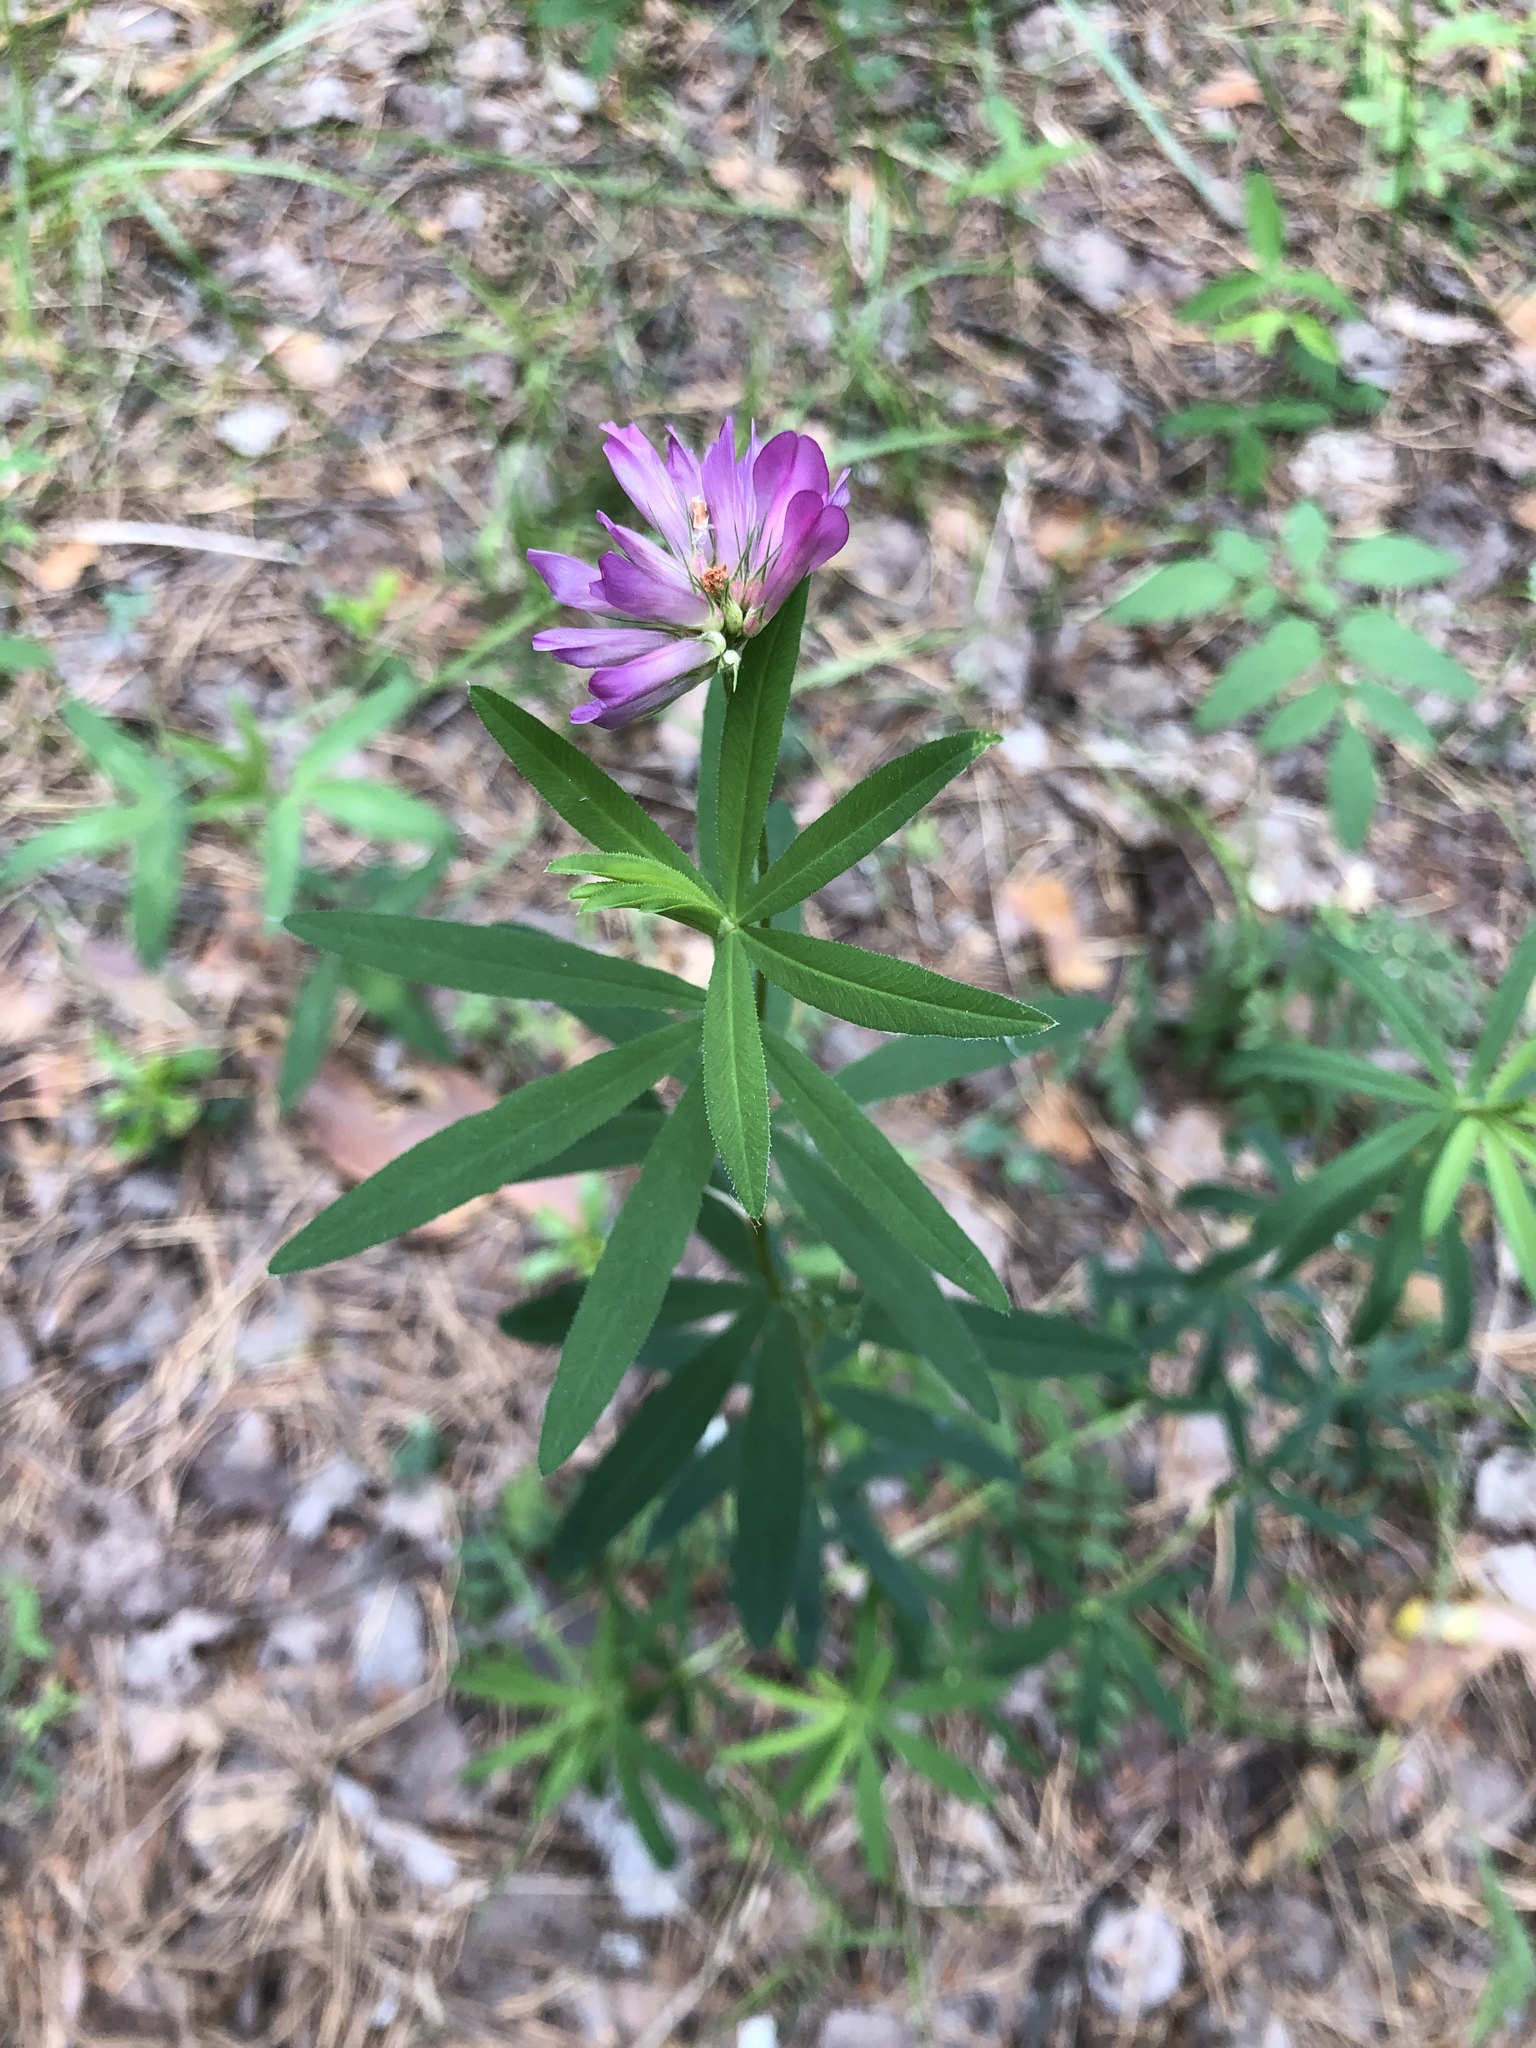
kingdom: Plantae
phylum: Tracheophyta
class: Magnoliopsida
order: Fabales
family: Fabaceae
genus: Trifolium
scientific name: Trifolium lupinaster
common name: Lupine clover
